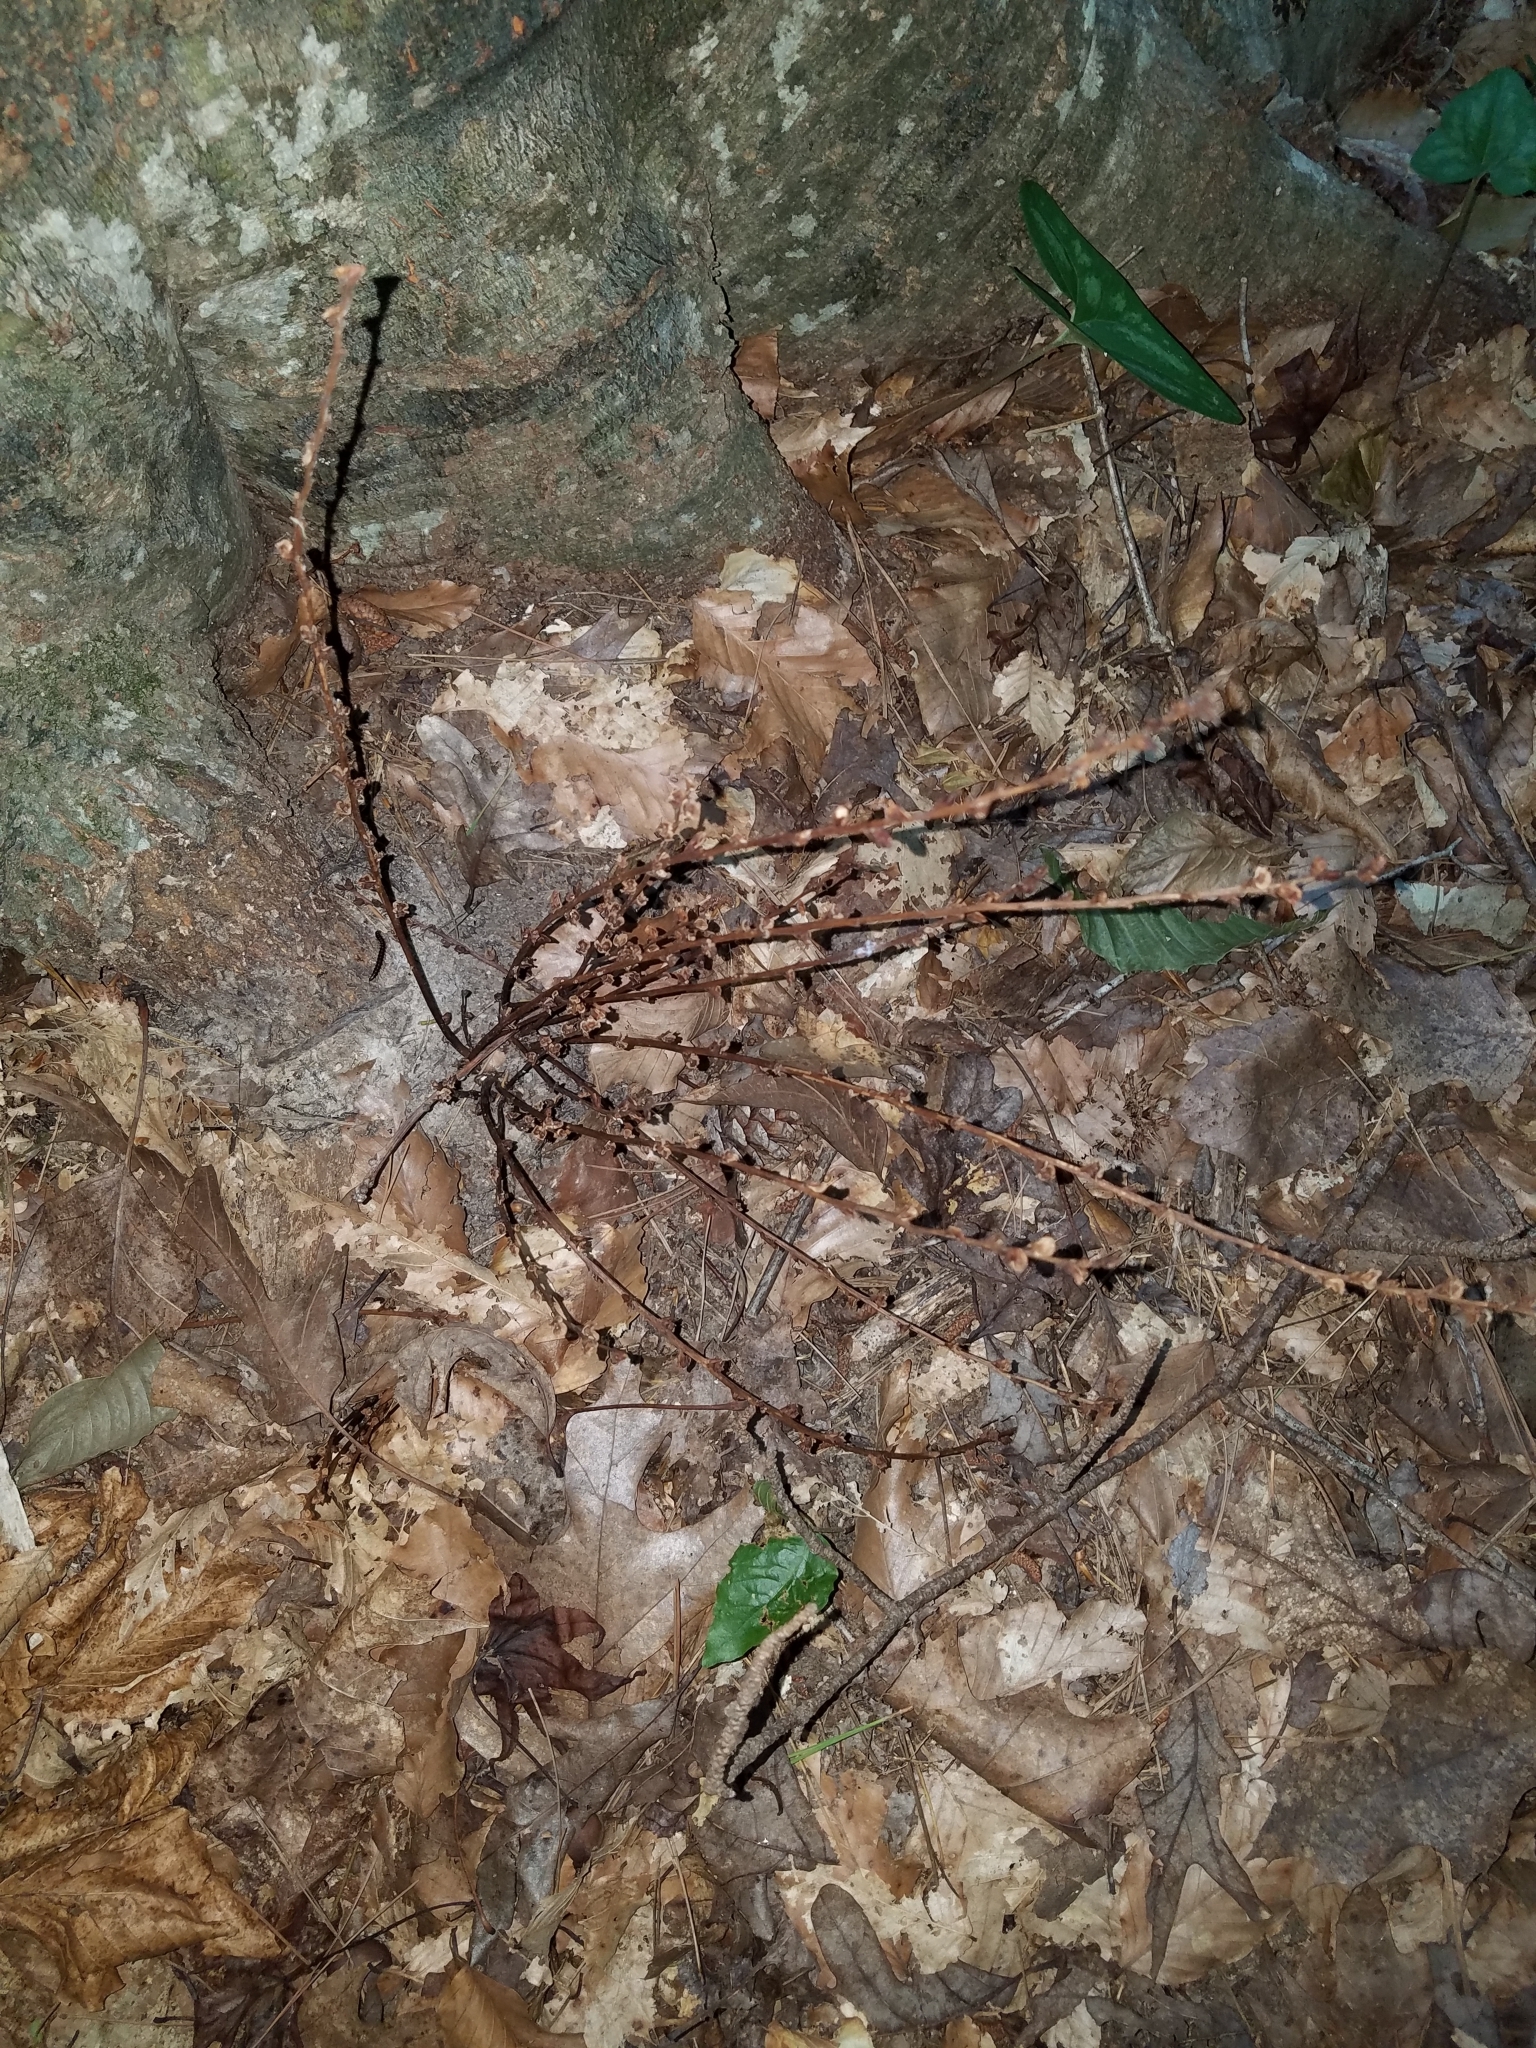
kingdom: Plantae
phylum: Tracheophyta
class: Magnoliopsida
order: Lamiales
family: Orobanchaceae
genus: Epifagus
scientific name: Epifagus virginiana
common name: Beechdrops
